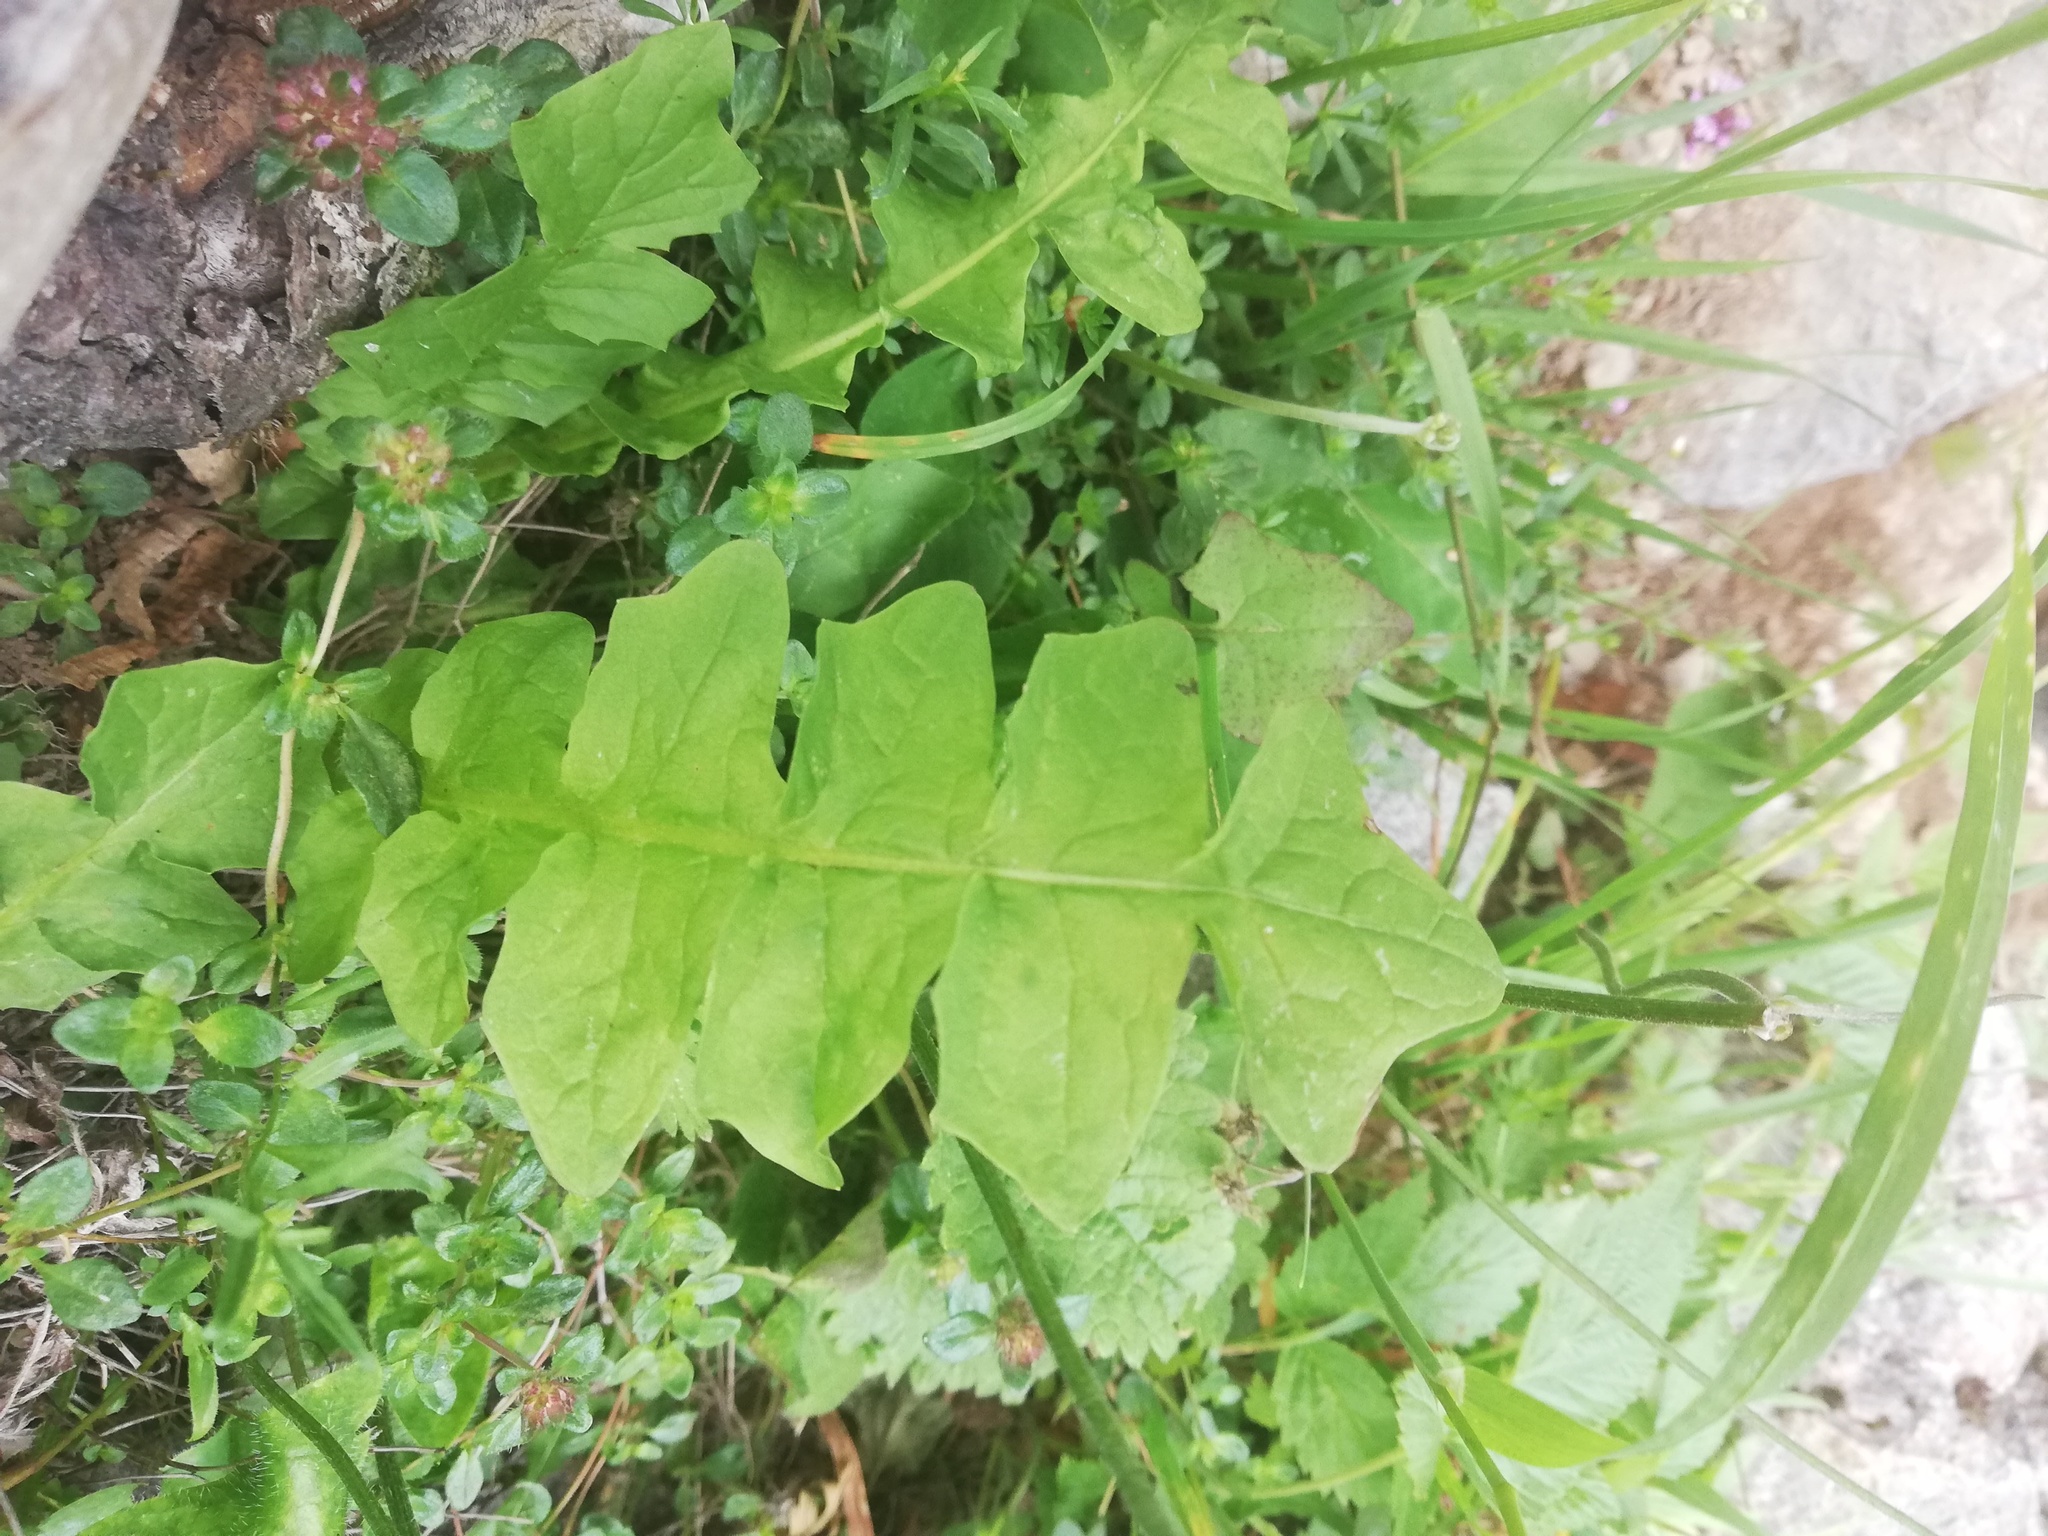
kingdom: Plantae
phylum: Tracheophyta
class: Magnoliopsida
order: Asterales
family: Asteraceae
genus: Aposeris
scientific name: Aposeris foetida
